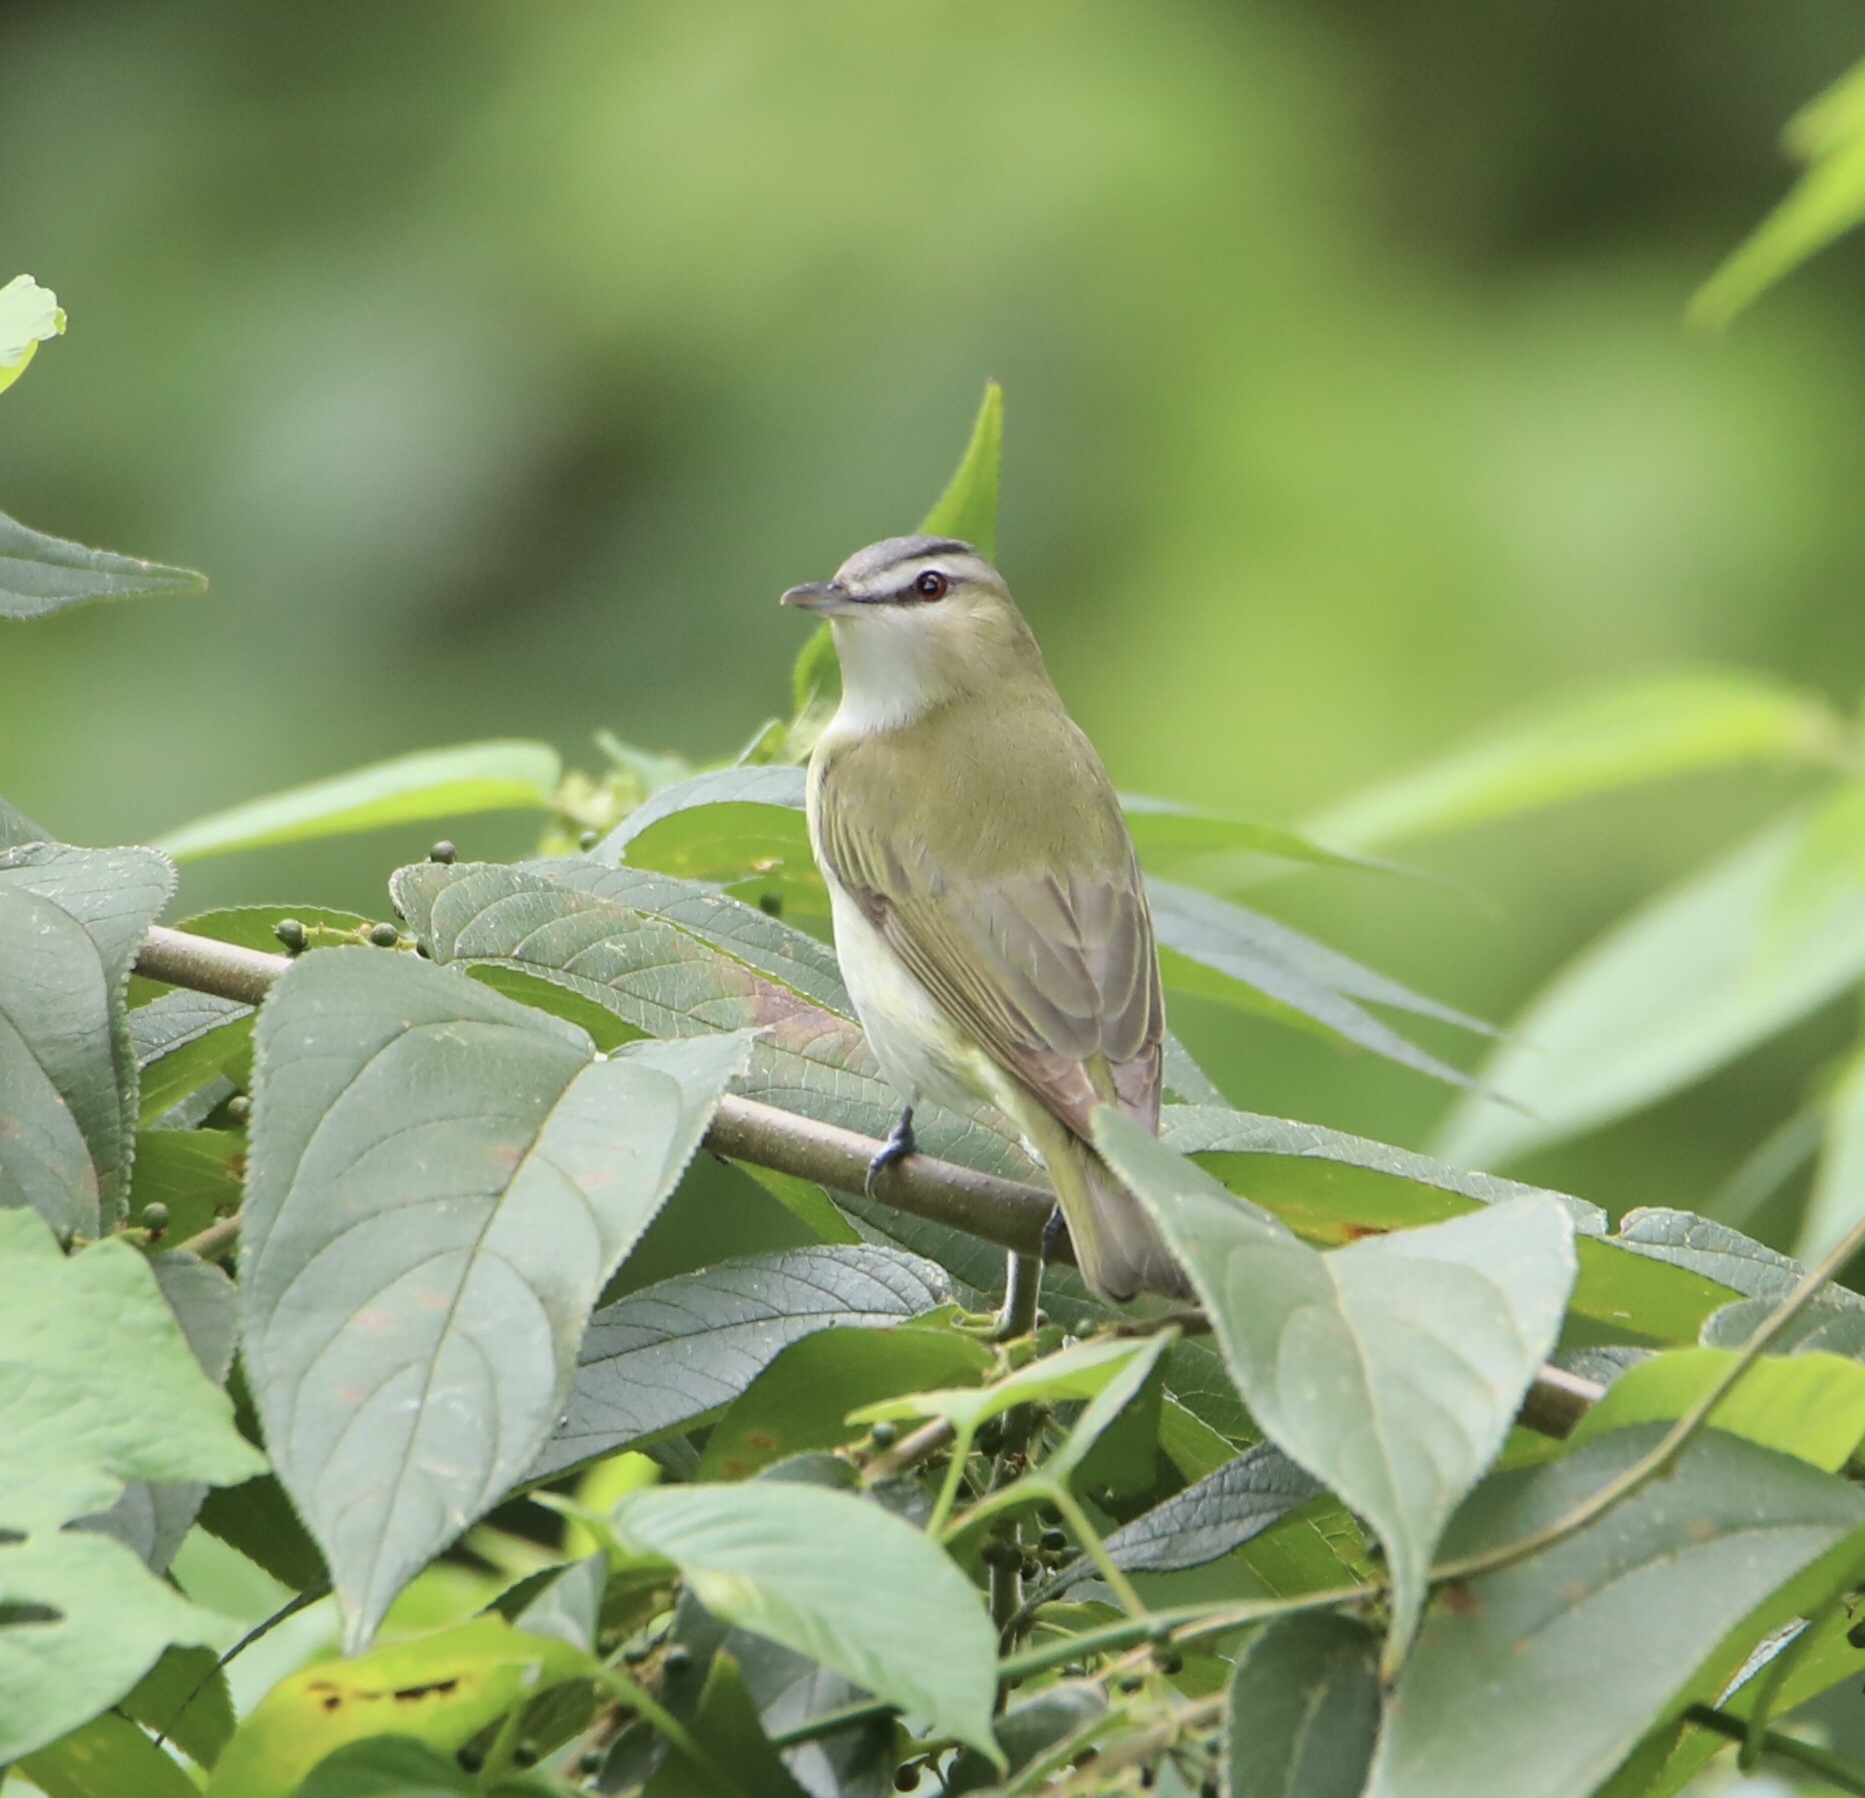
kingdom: Animalia
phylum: Chordata
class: Aves
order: Passeriformes
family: Vireonidae
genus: Vireo
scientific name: Vireo olivaceus
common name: Red-eyed vireo
